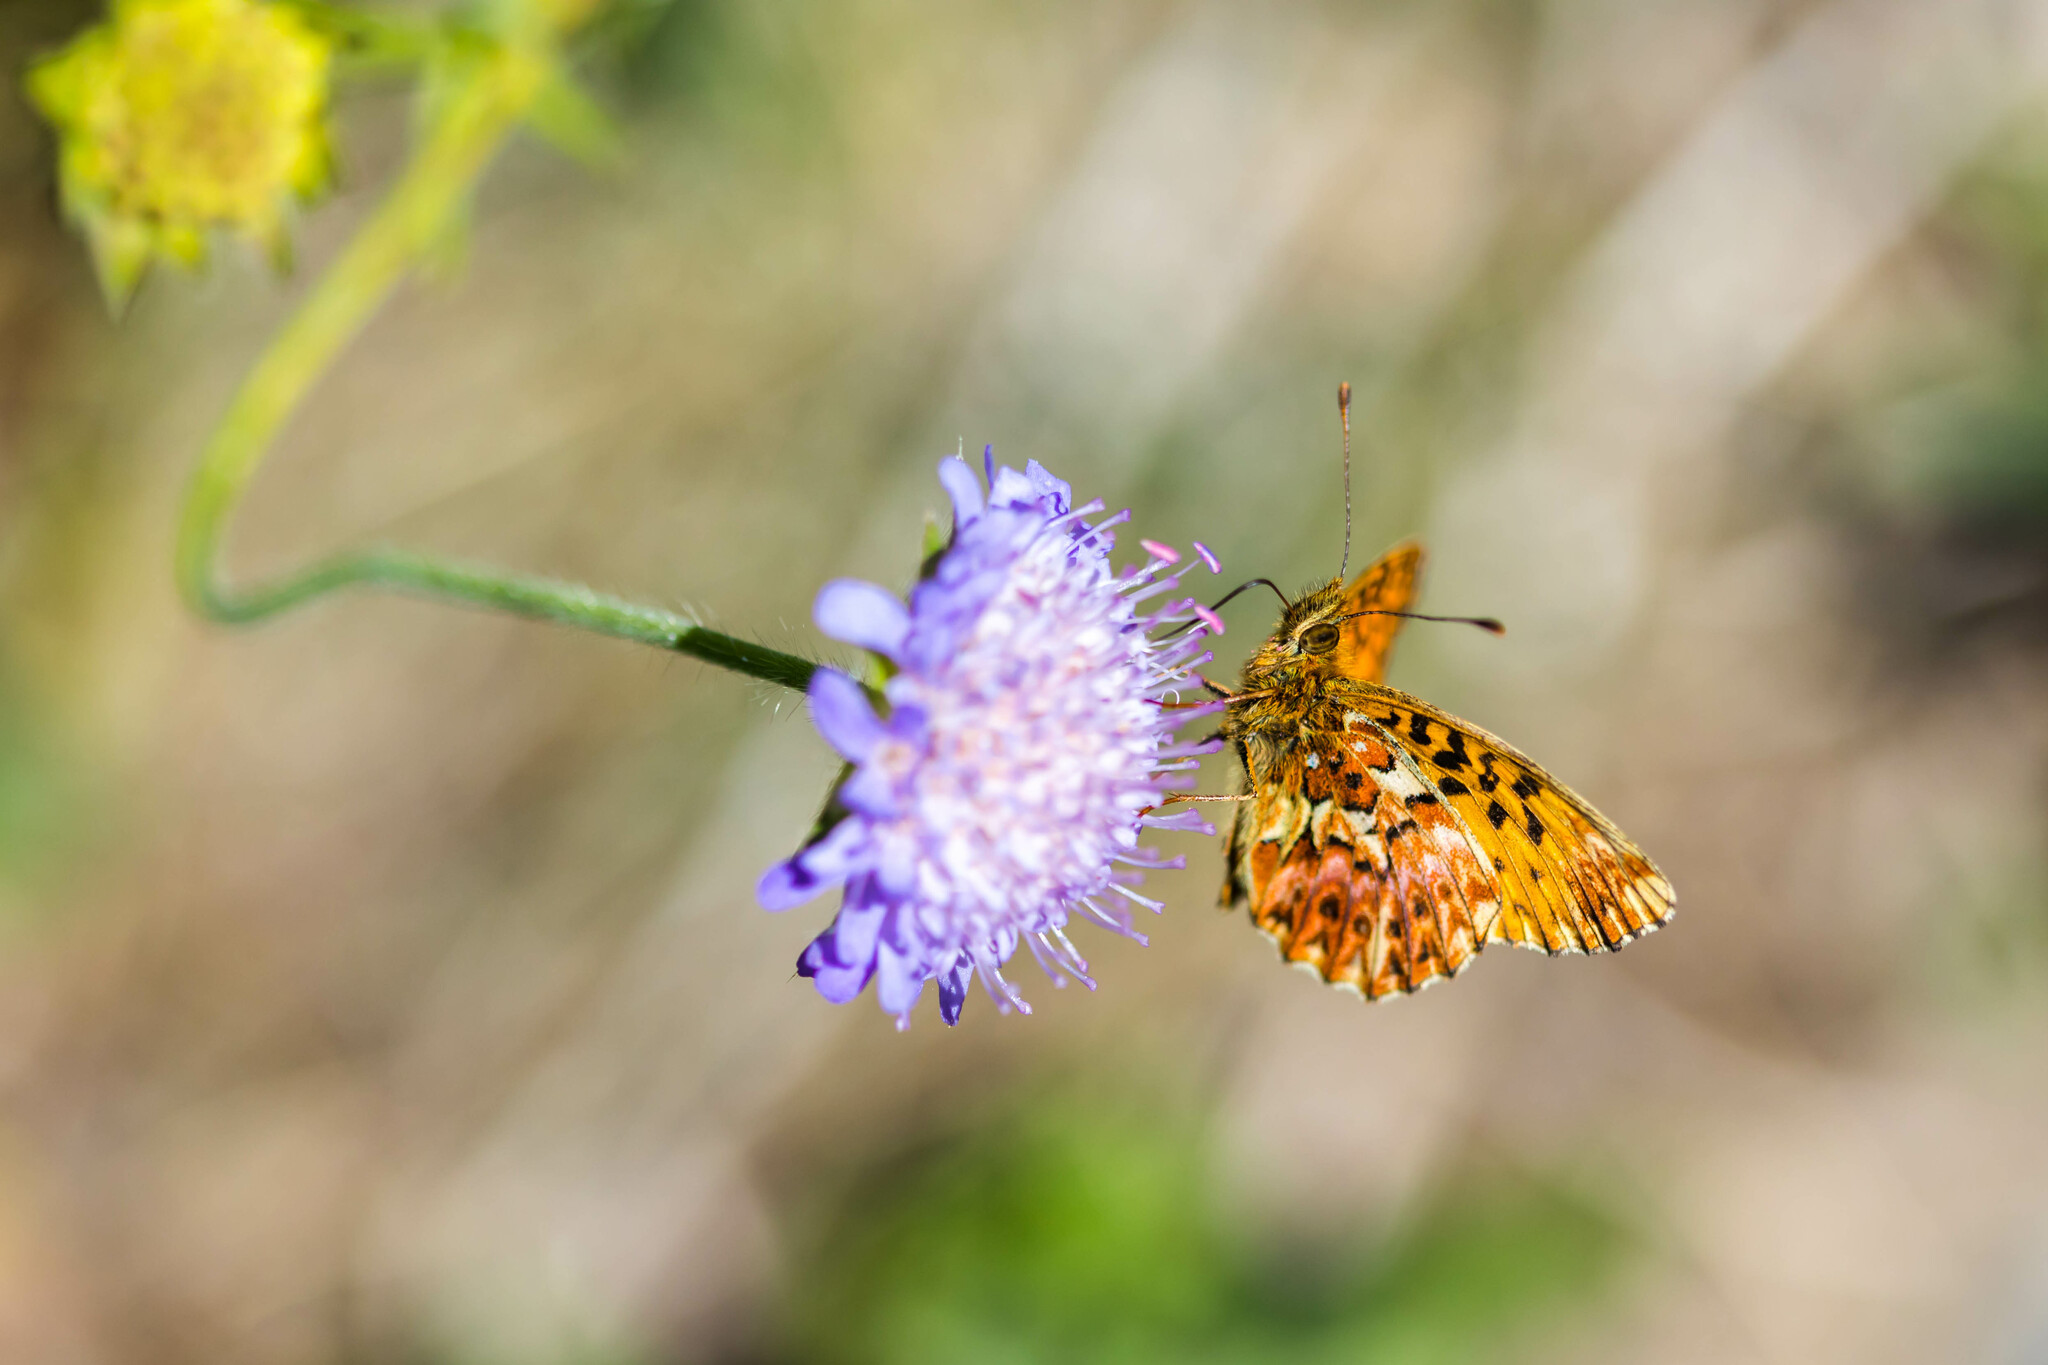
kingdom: Animalia
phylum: Arthropoda
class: Insecta
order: Lepidoptera
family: Nymphalidae
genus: Boloria
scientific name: Boloria titania
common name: Titania's fritillary
